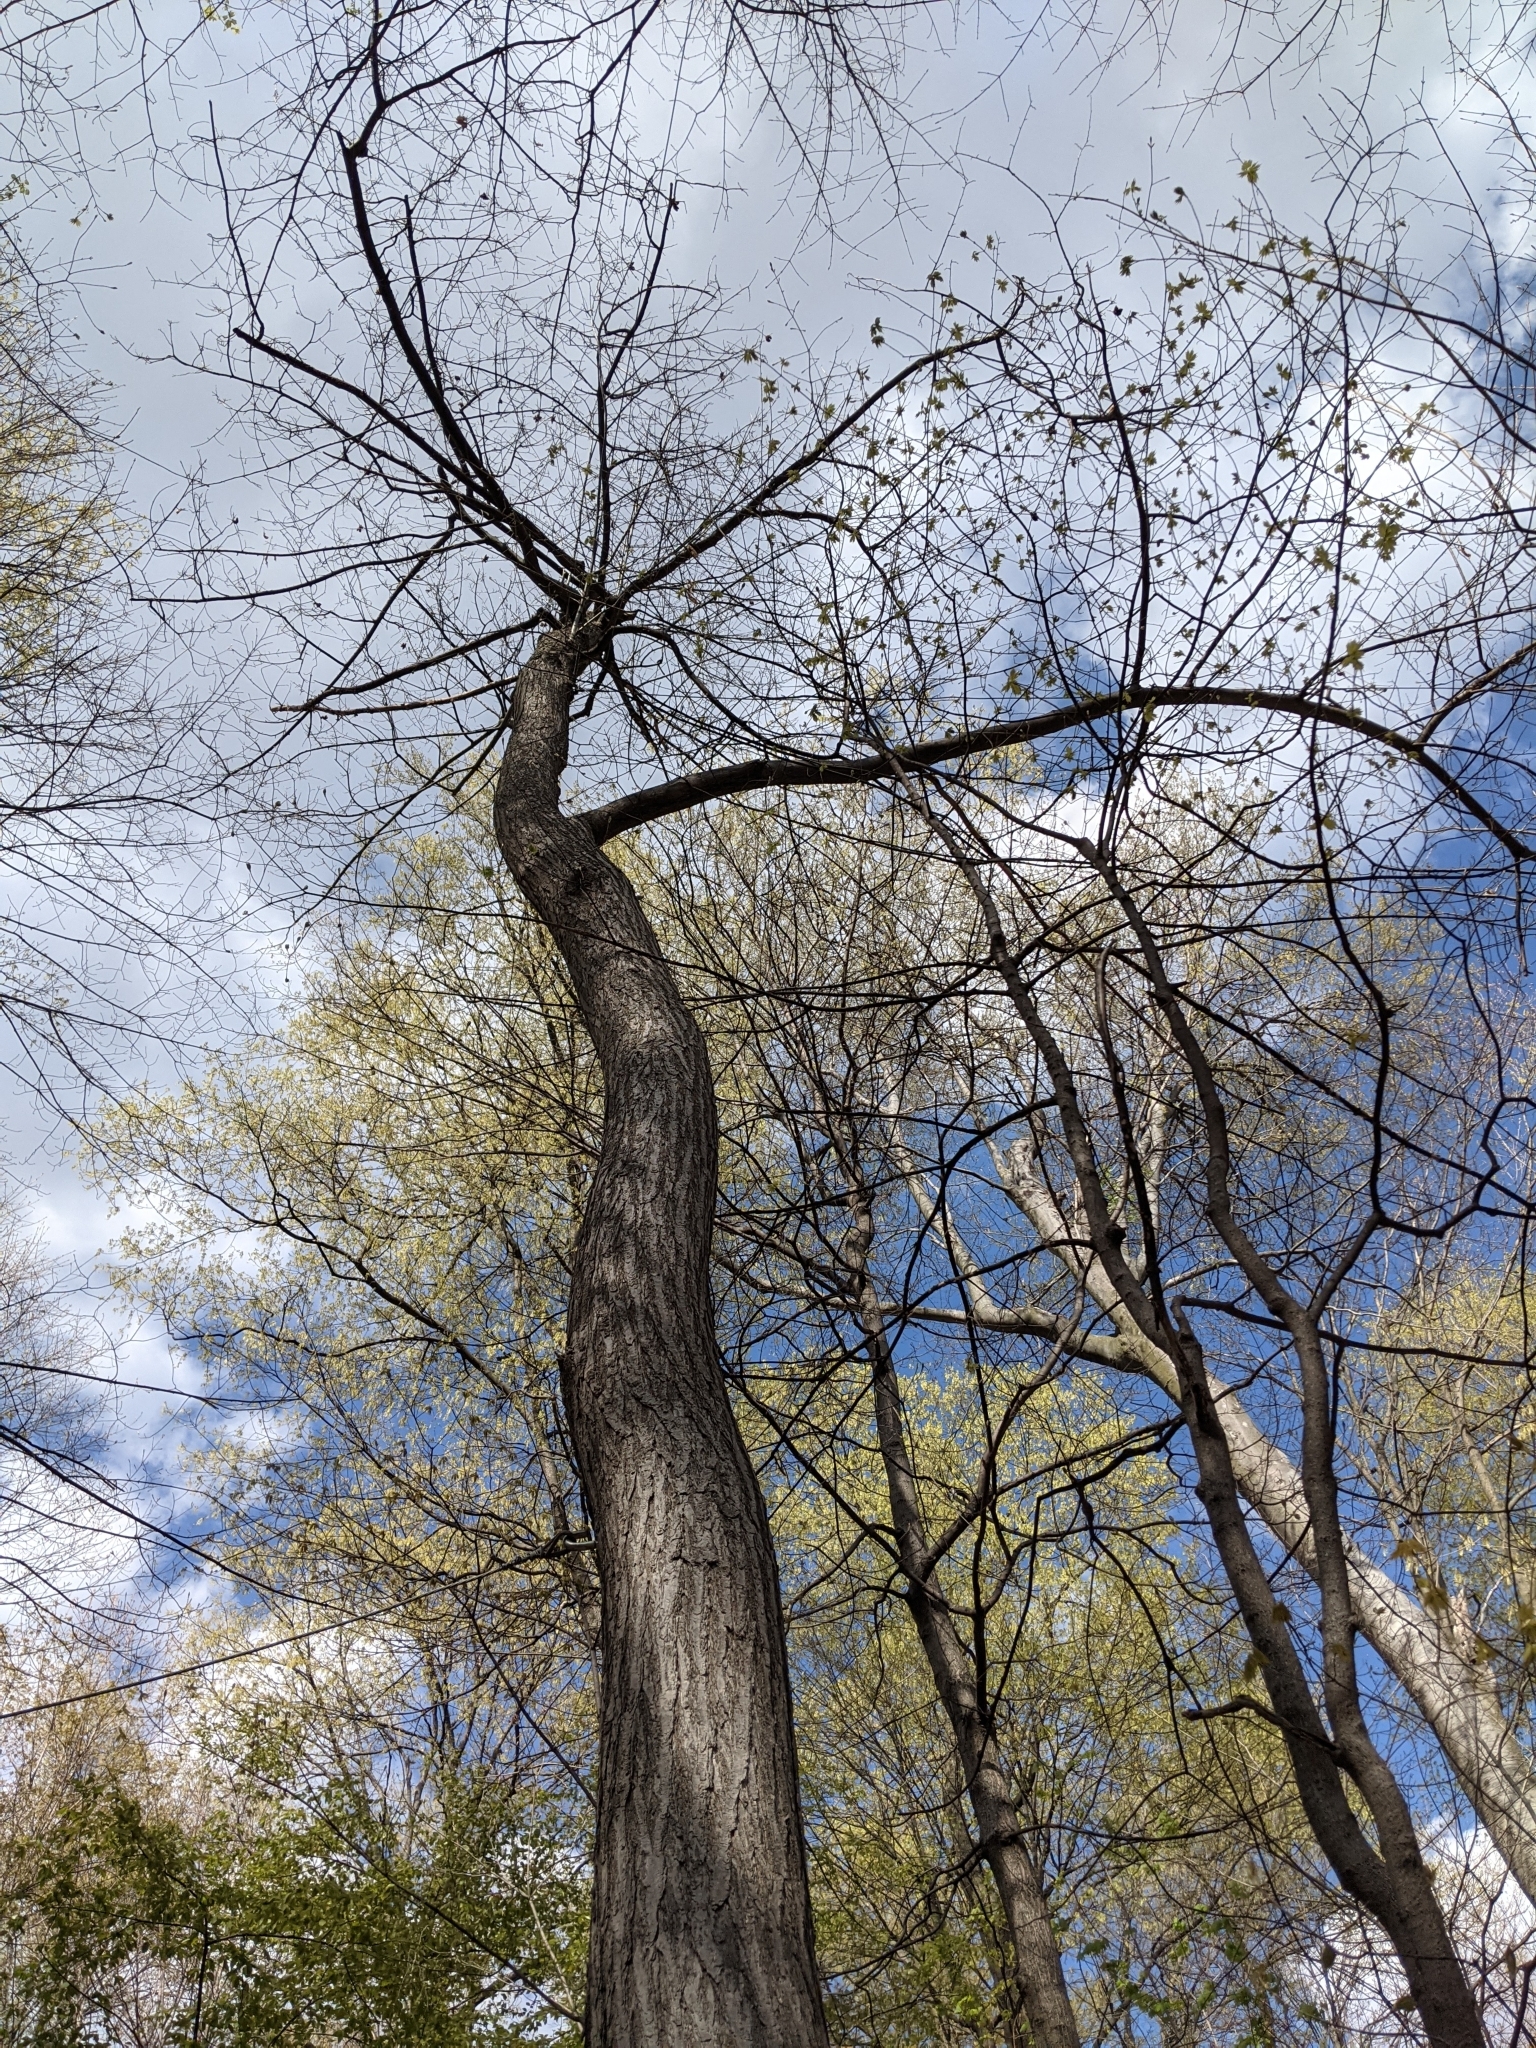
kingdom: Plantae
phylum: Tracheophyta
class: Magnoliopsida
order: Fagales
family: Fagaceae
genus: Castanea
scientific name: Castanea dentata
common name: American chestnut
